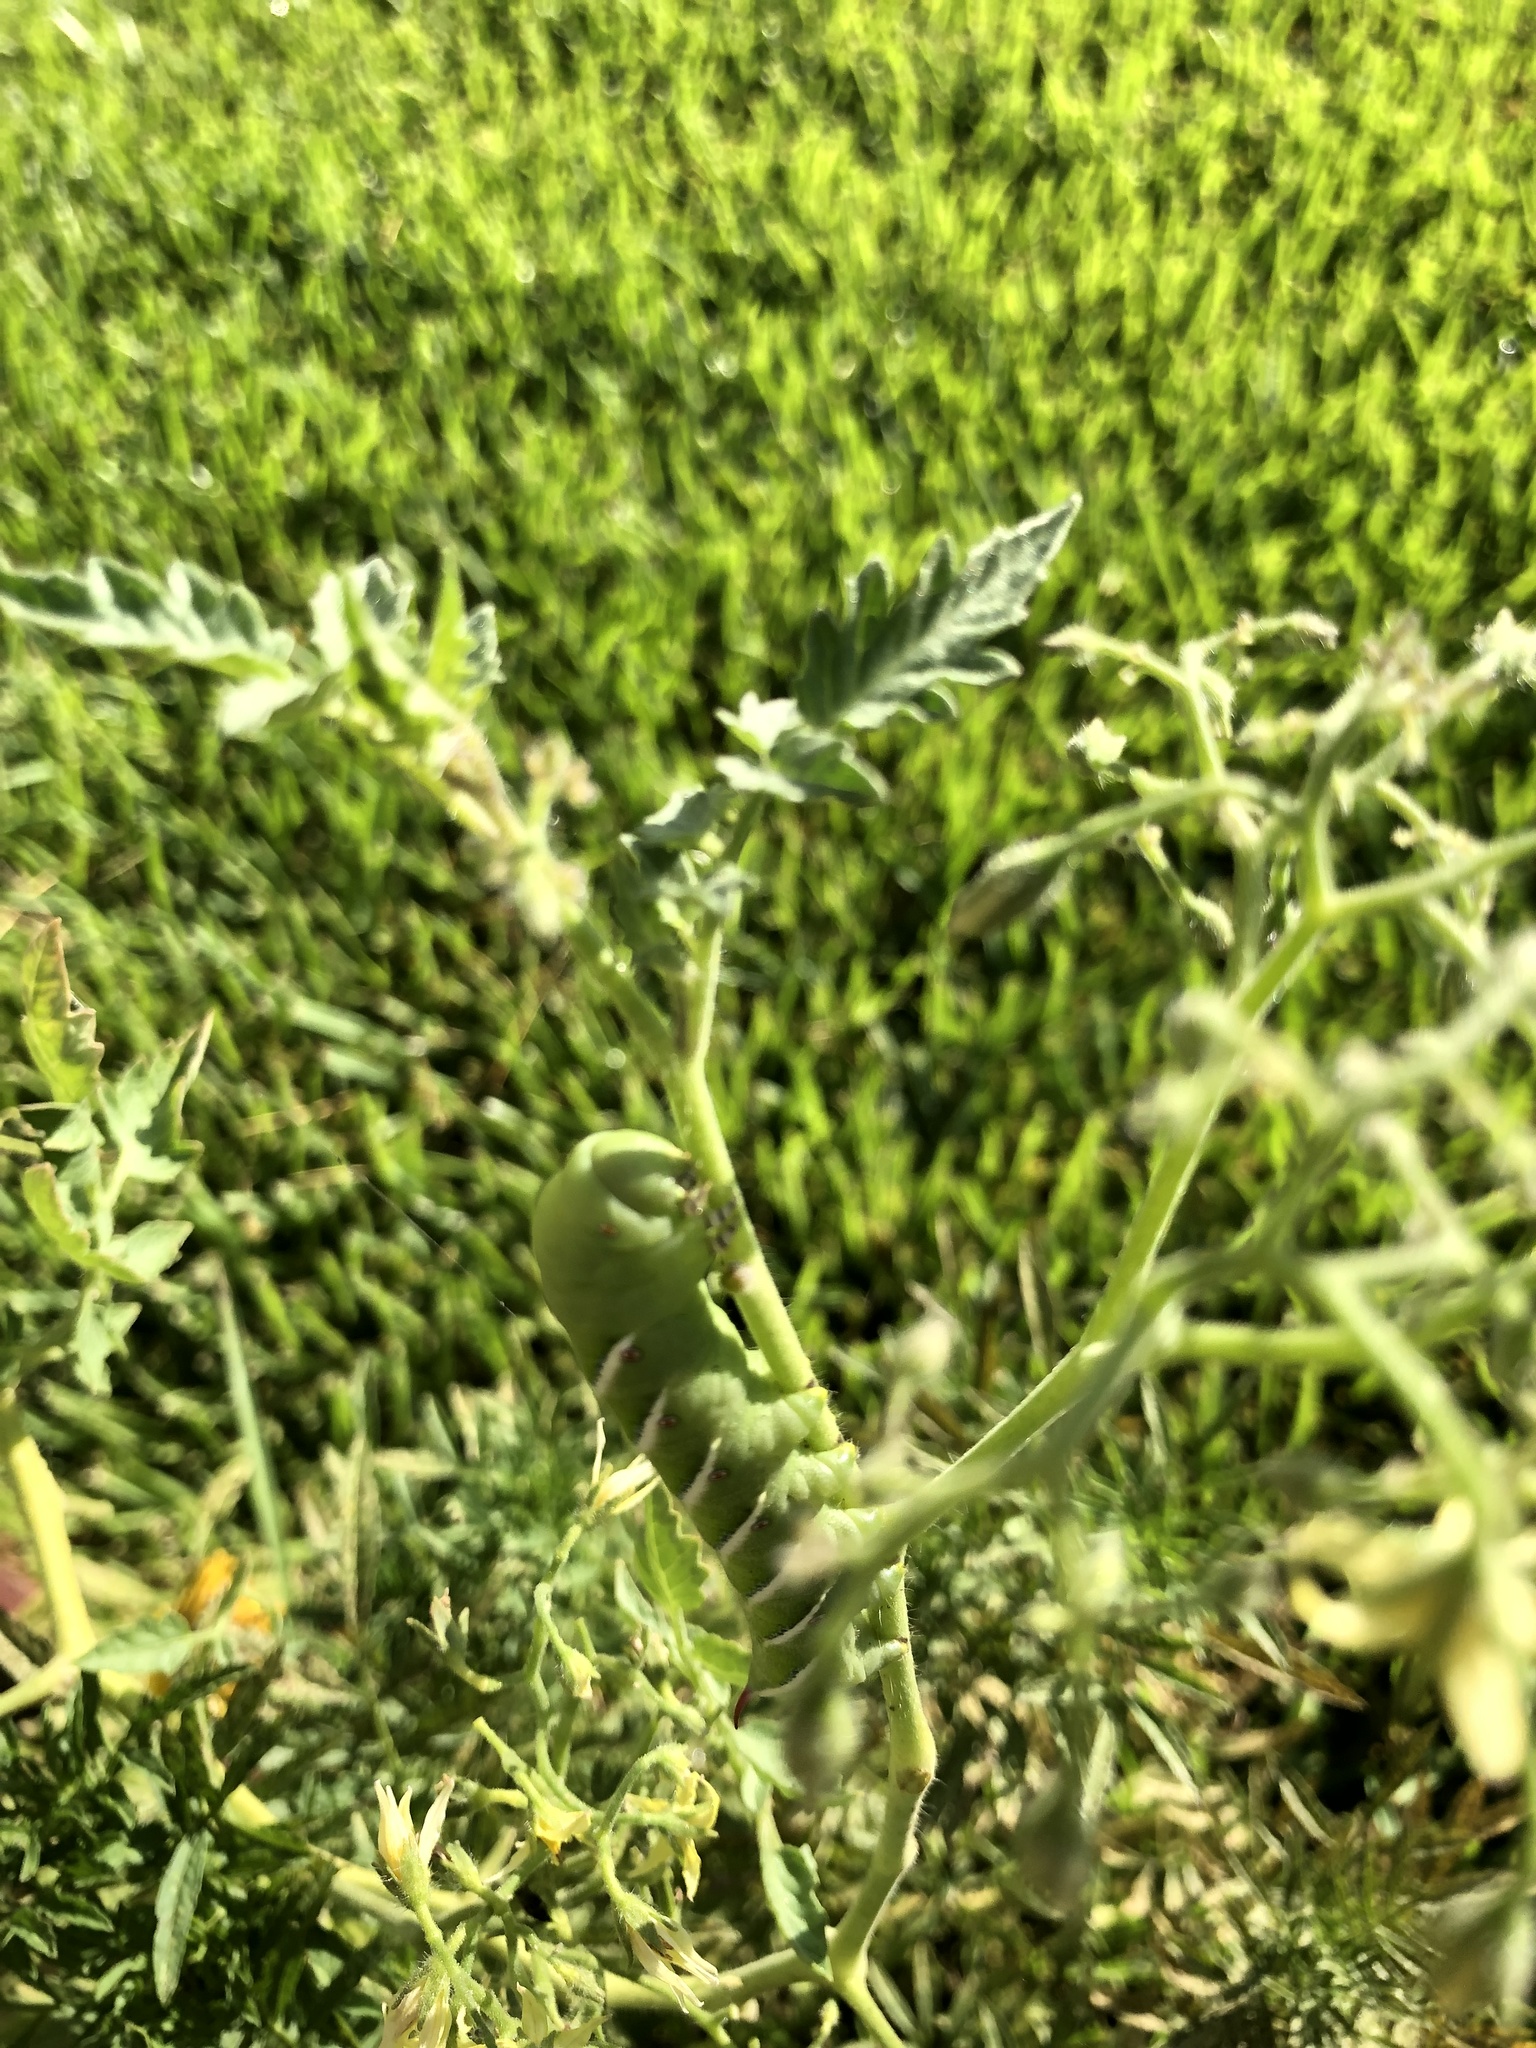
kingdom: Animalia
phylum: Arthropoda
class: Insecta
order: Lepidoptera
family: Sphingidae
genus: Manduca
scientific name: Manduca sexta
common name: Carolina sphinx
